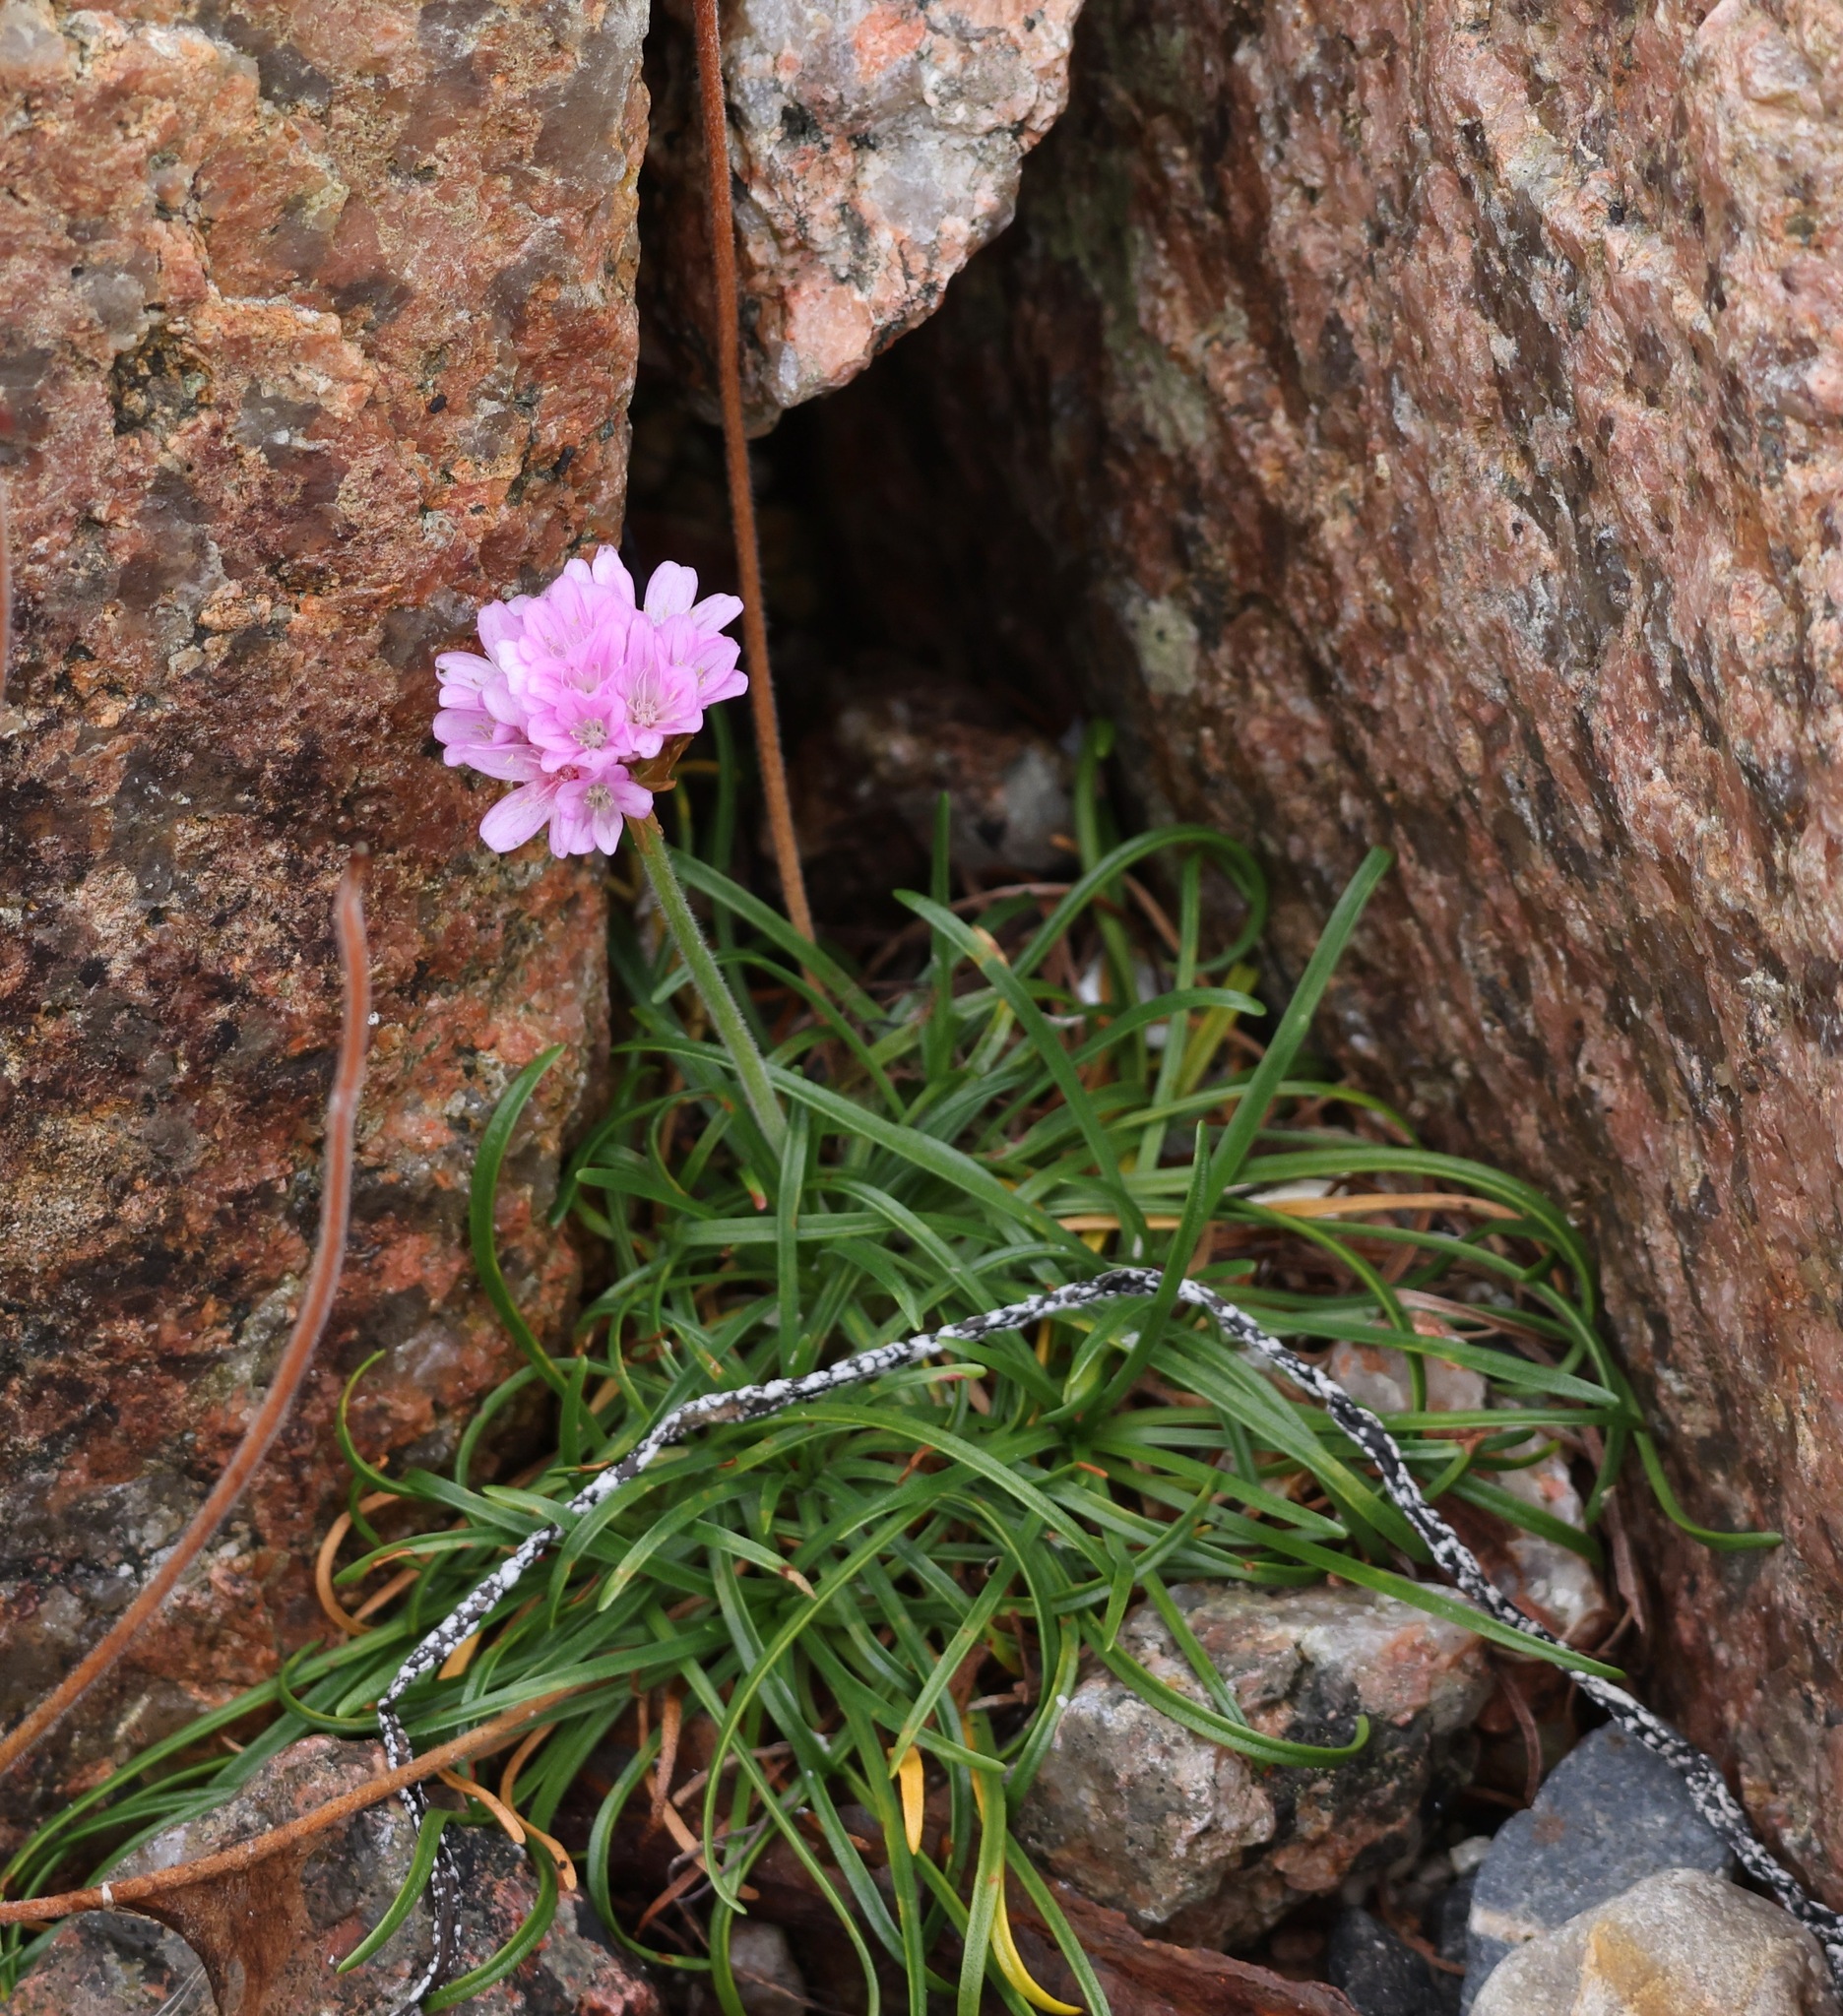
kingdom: Plantae
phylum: Tracheophyta
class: Magnoliopsida
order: Caryophyllales
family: Plumbaginaceae
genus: Armeria
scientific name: Armeria maritima
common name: Thrift
